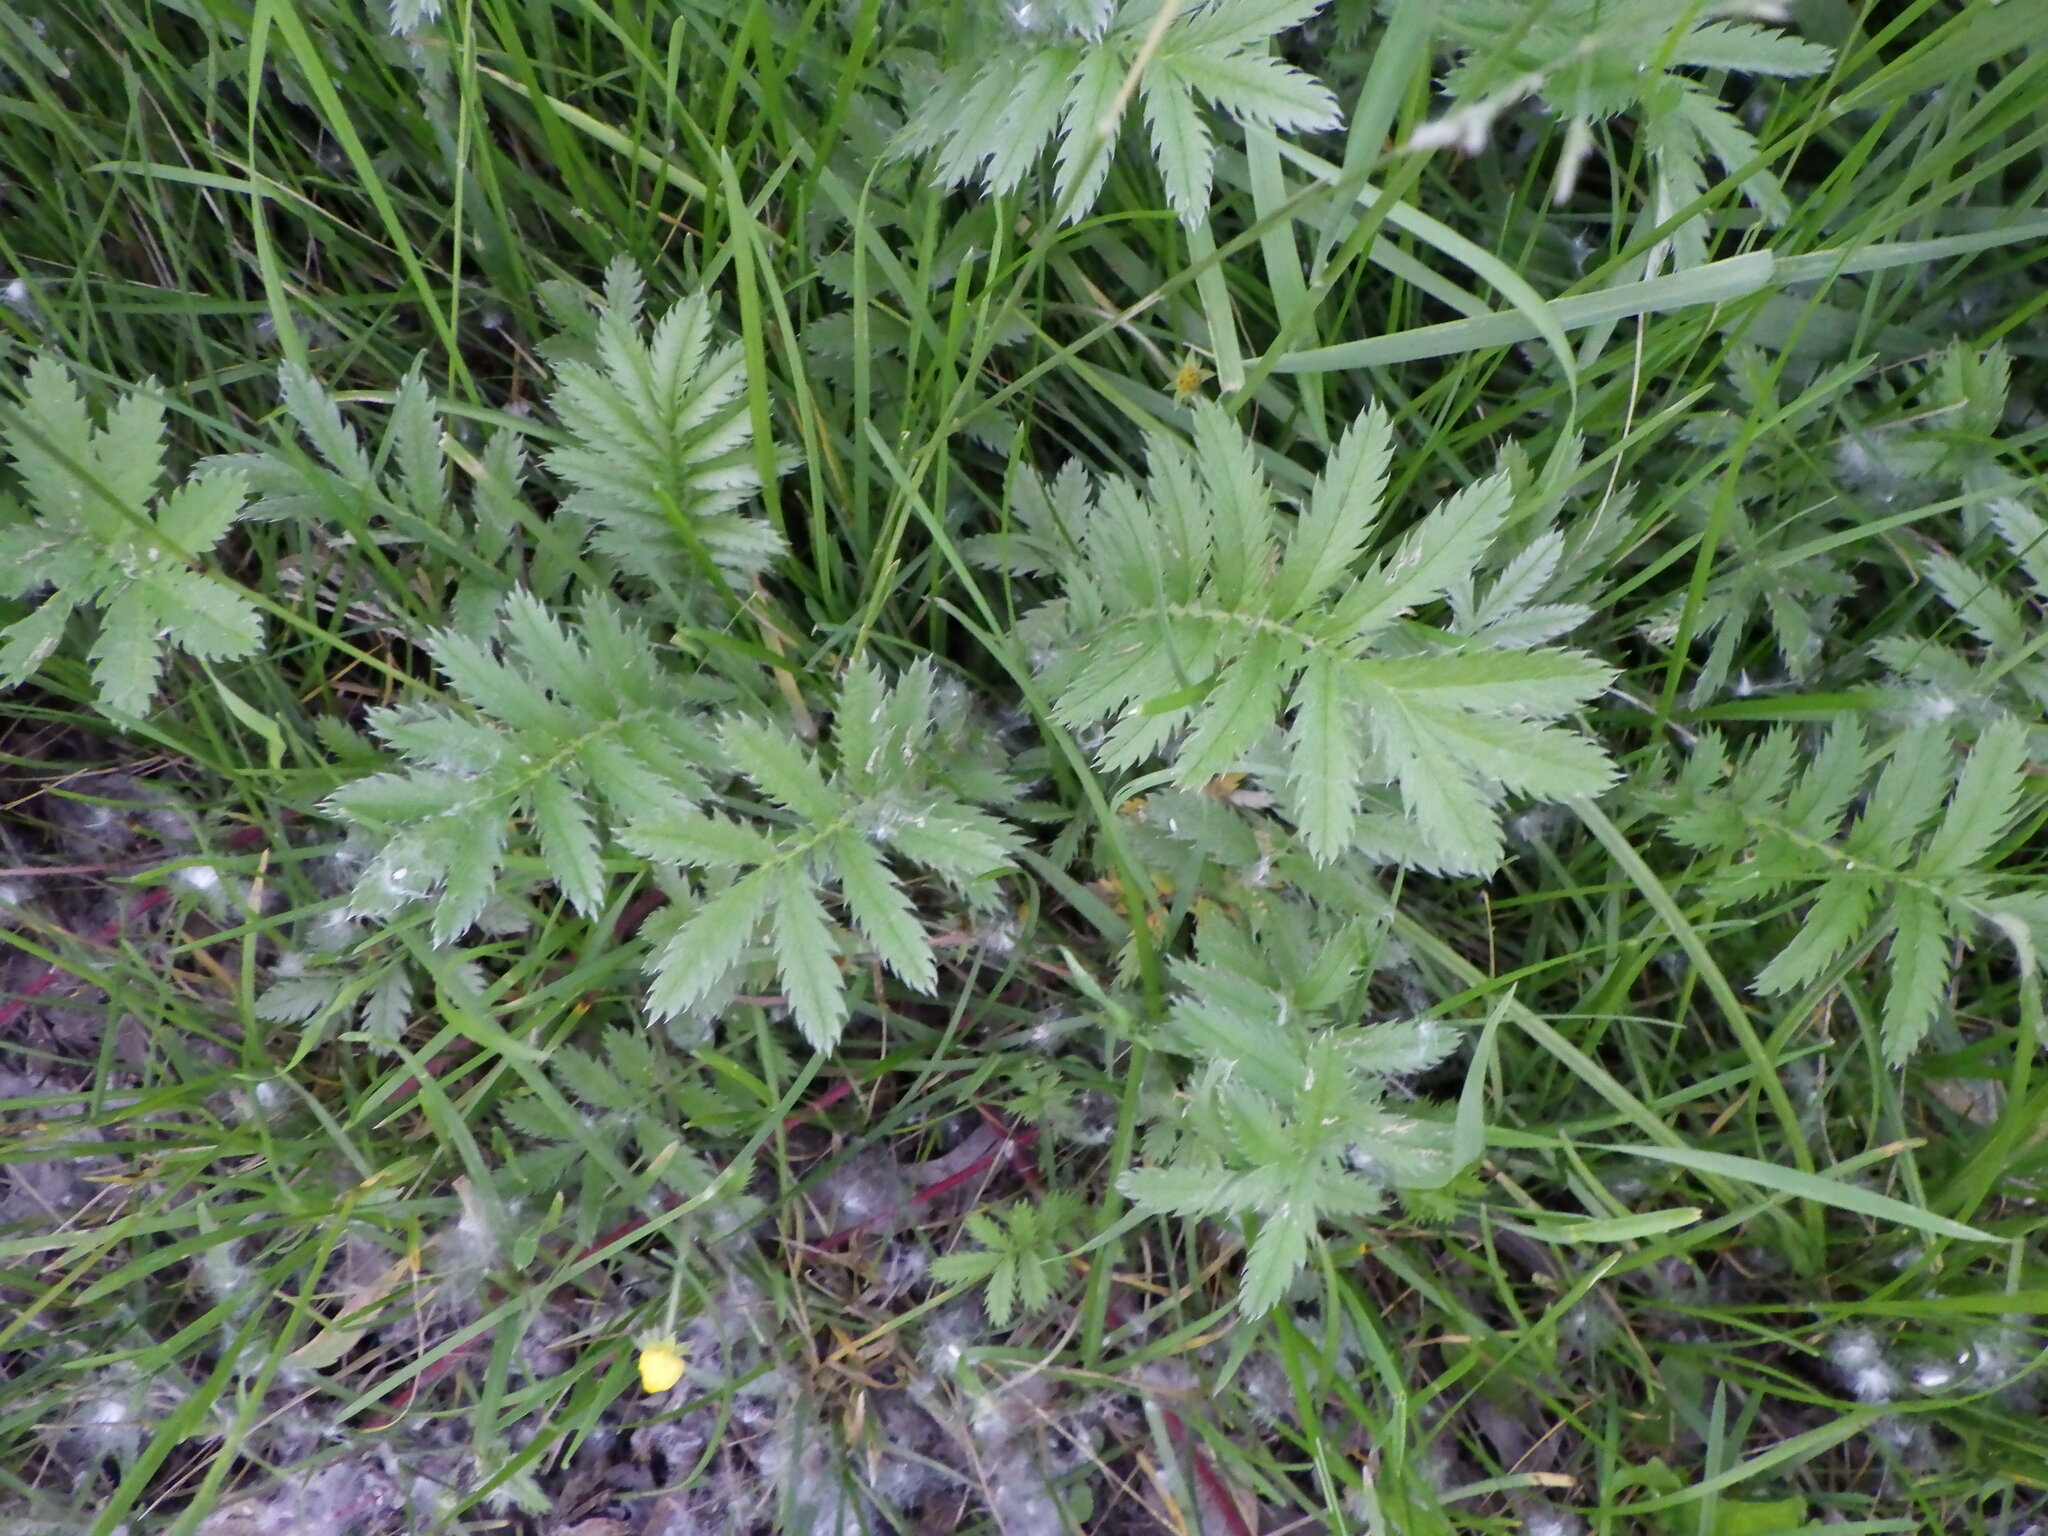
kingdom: Plantae
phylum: Tracheophyta
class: Magnoliopsida
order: Rosales
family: Rosaceae
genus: Argentina
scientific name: Argentina anserina
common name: Common silverweed
